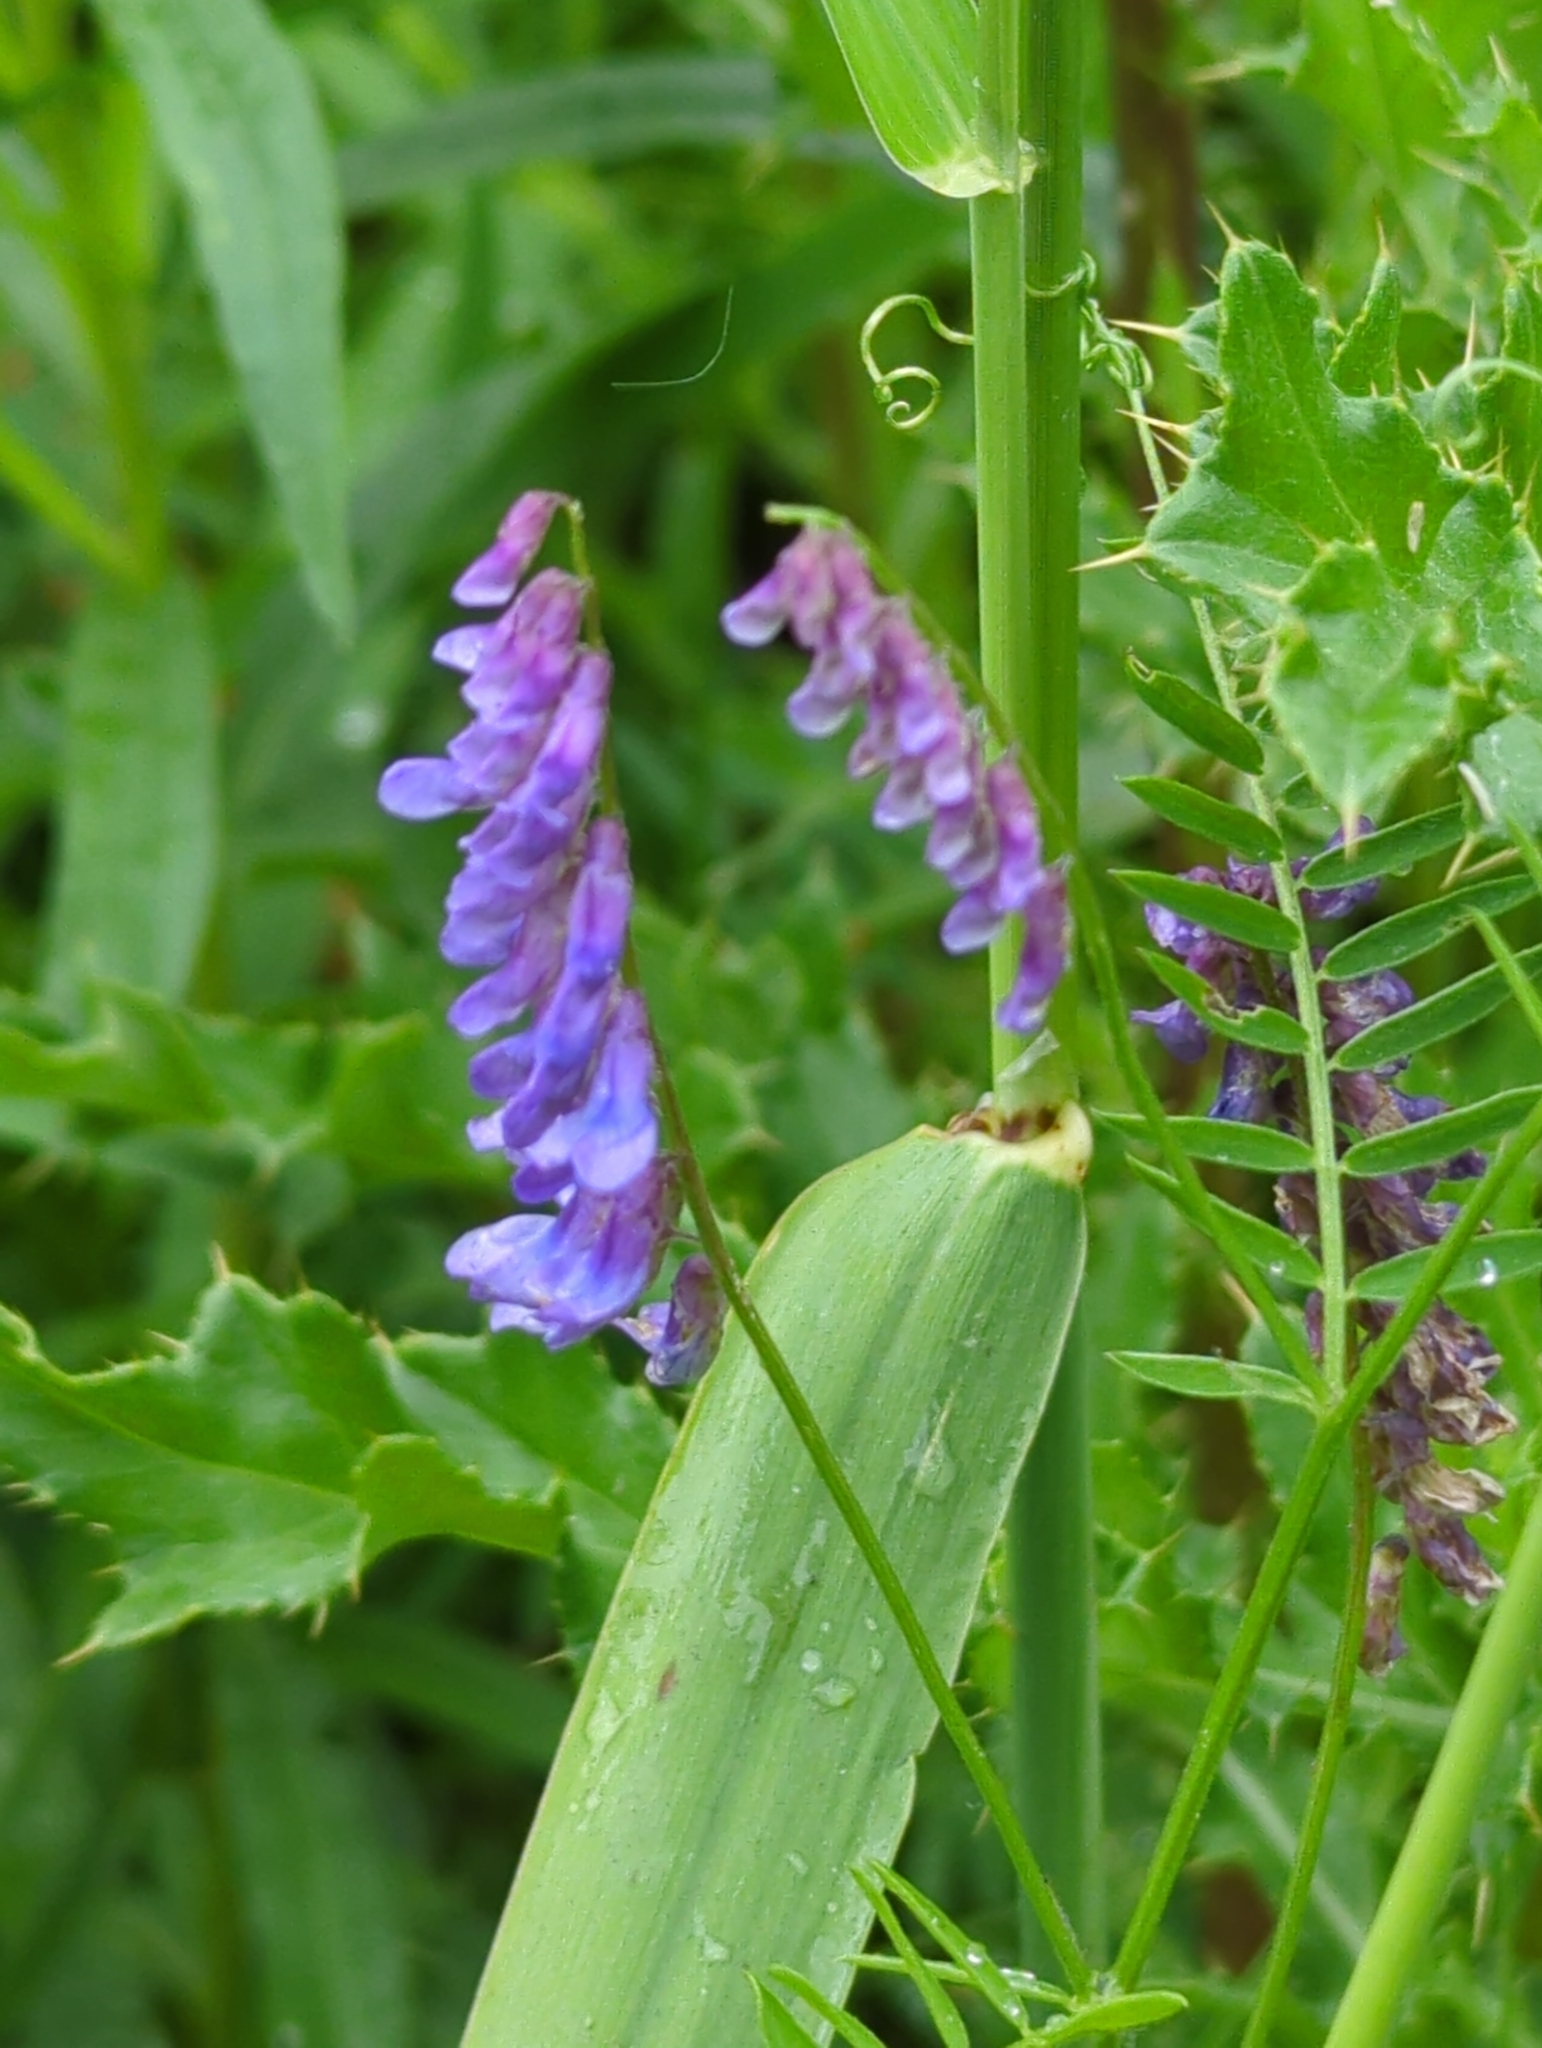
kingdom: Plantae
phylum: Tracheophyta
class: Magnoliopsida
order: Fabales
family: Fabaceae
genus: Vicia
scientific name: Vicia cracca
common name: Bird vetch
